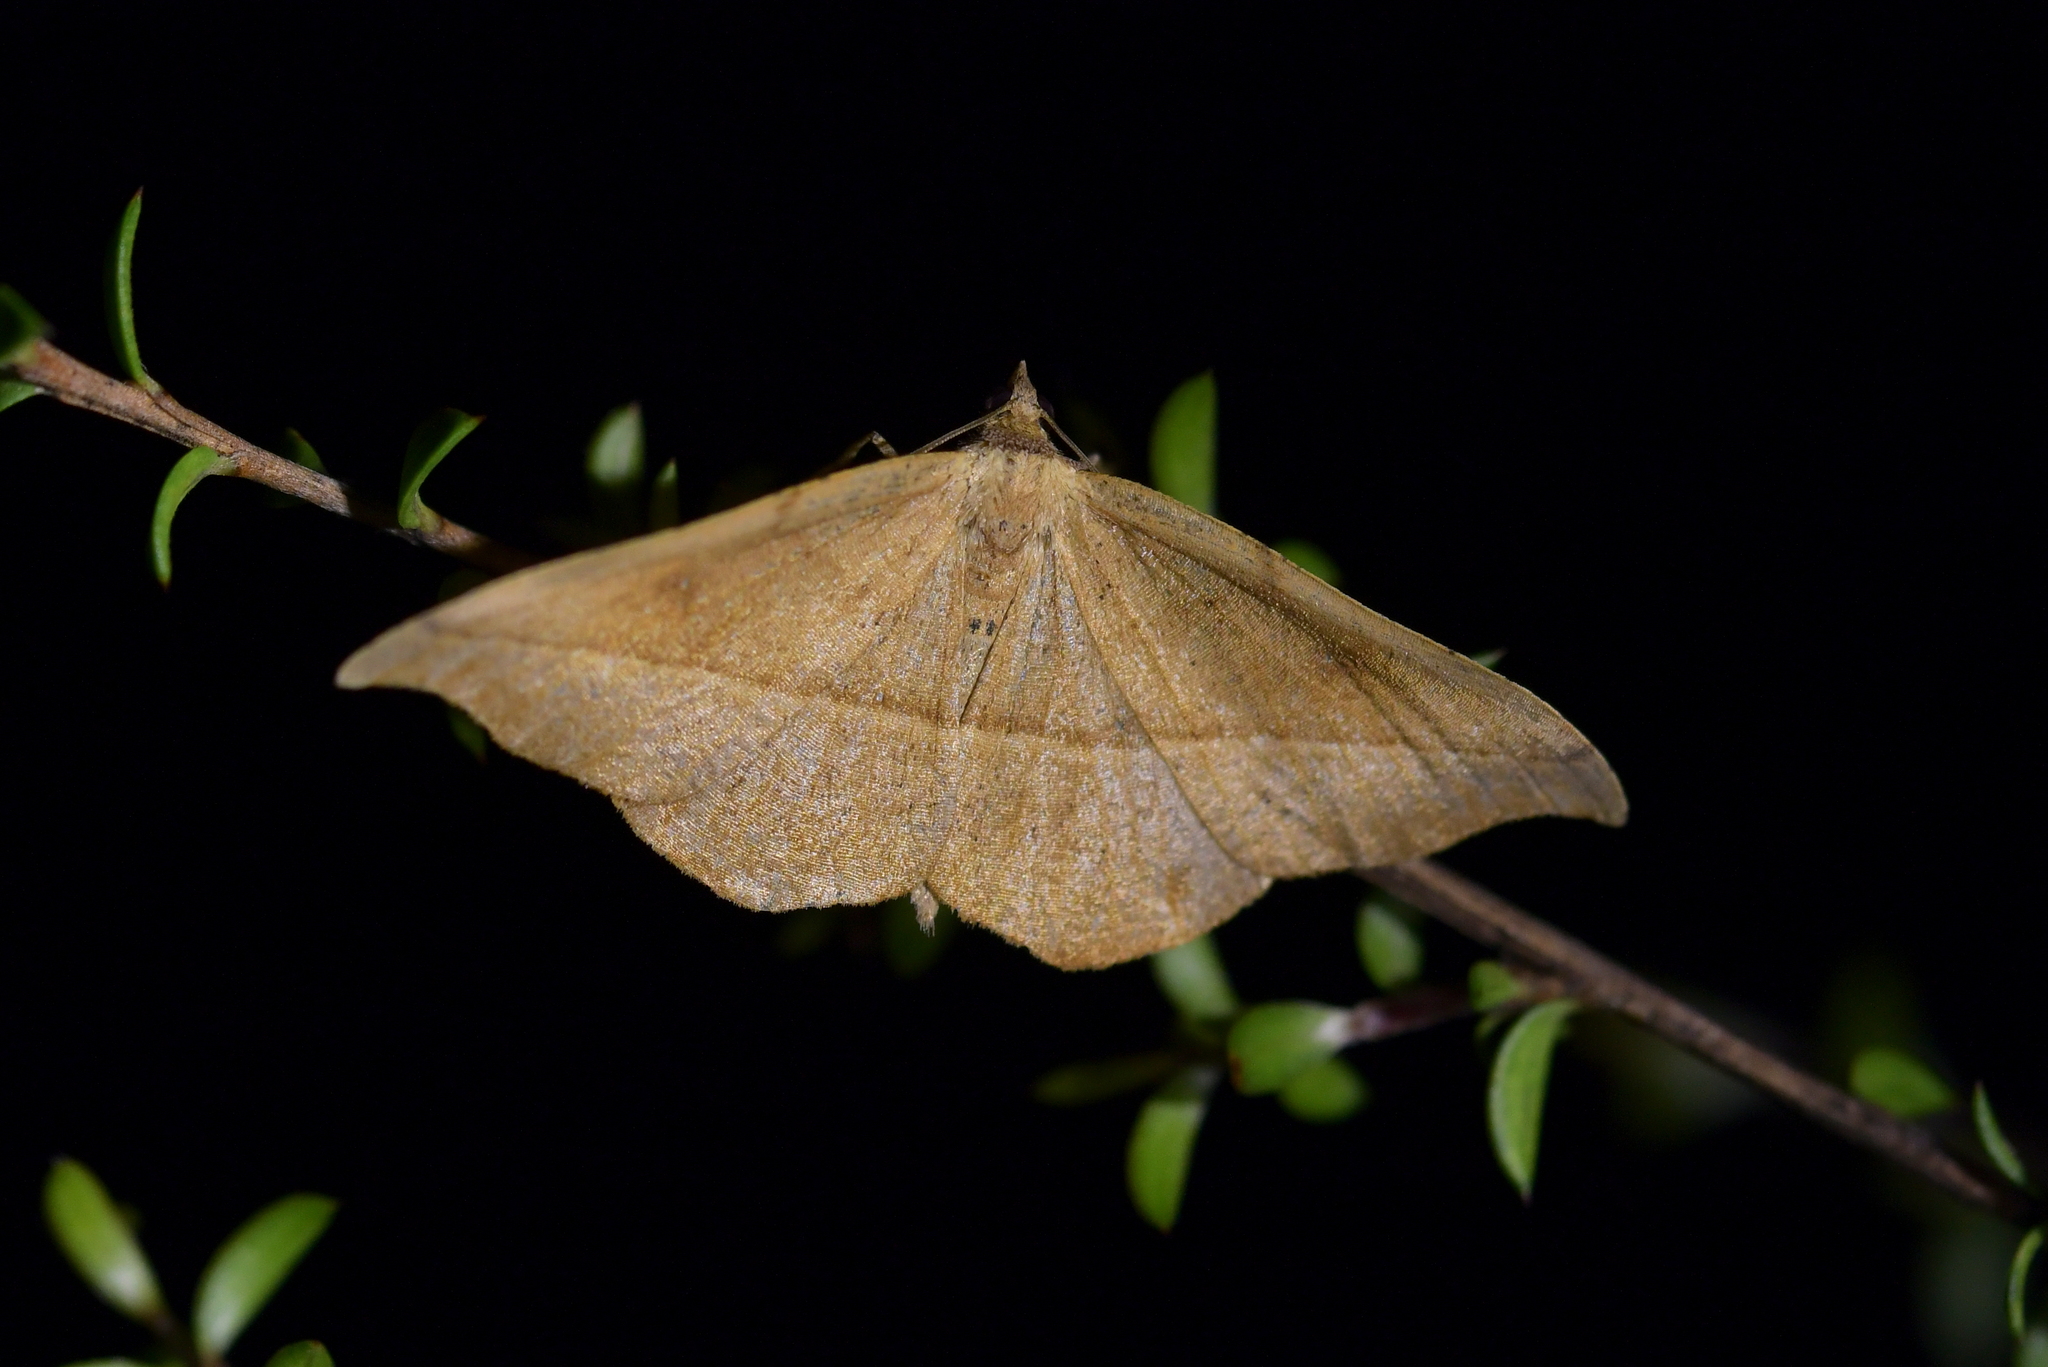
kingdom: Animalia
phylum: Arthropoda
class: Insecta
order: Lepidoptera
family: Geometridae
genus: Sarisa
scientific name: Sarisa muriferata
